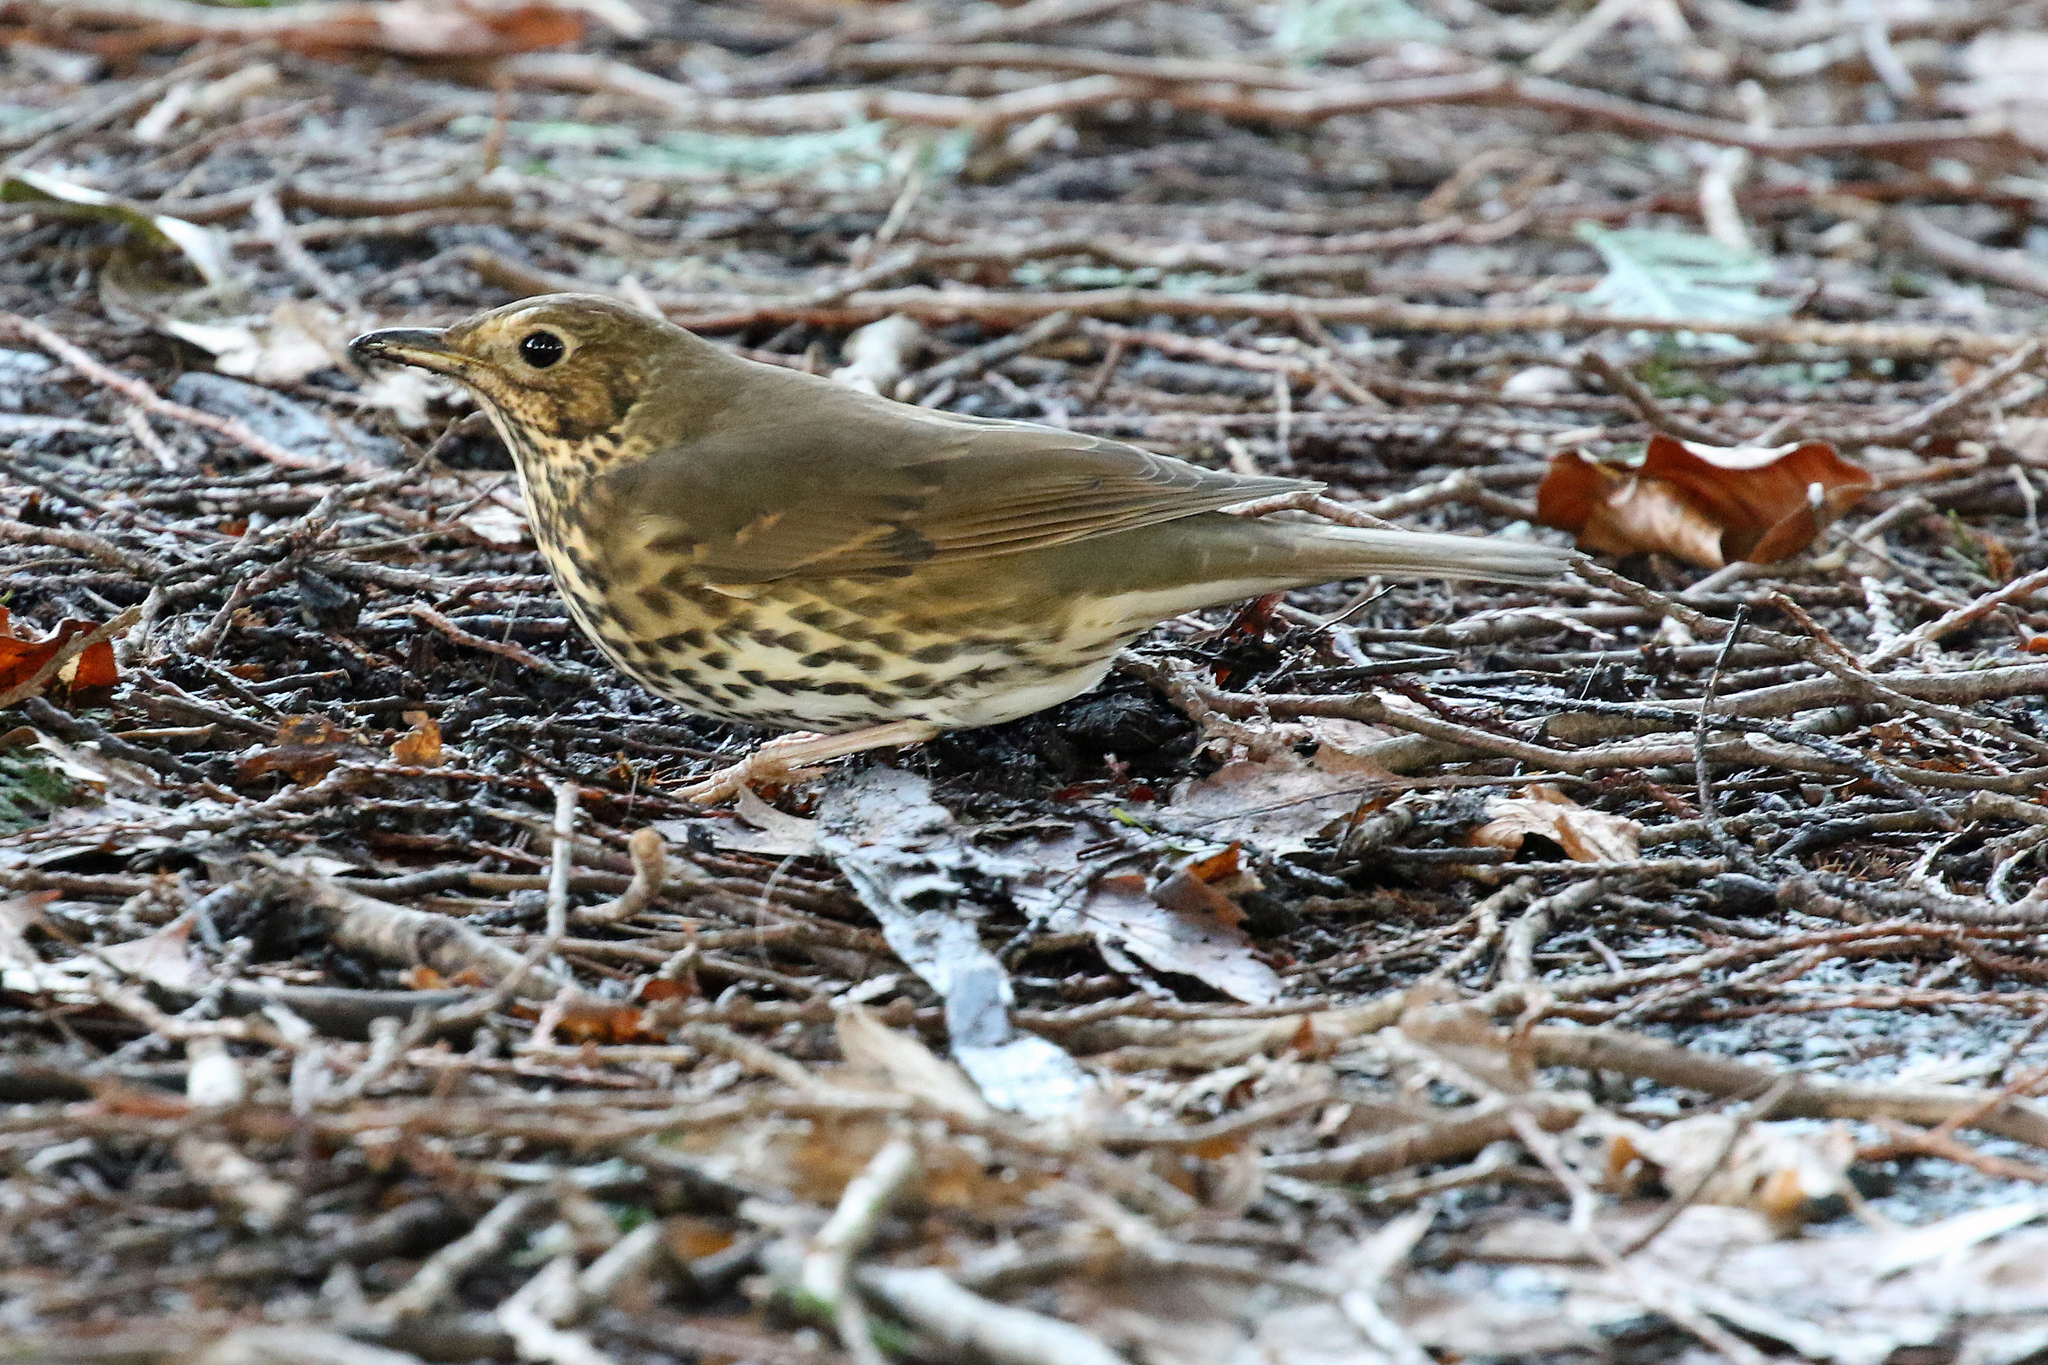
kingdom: Animalia
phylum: Chordata
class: Aves
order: Passeriformes
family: Turdidae
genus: Turdus
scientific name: Turdus philomelos
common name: Song thrush
